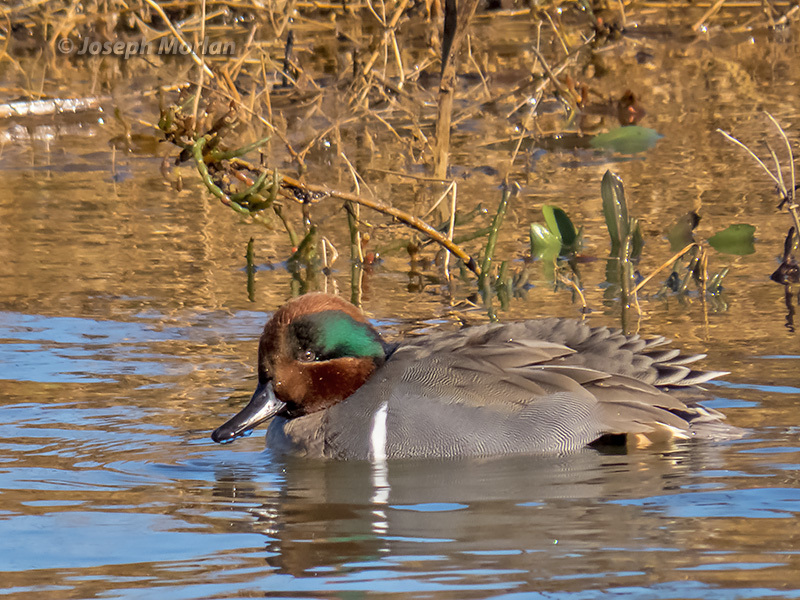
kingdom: Animalia
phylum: Chordata
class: Aves
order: Anseriformes
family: Anatidae
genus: Anas
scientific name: Anas crecca
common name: Eurasian teal
